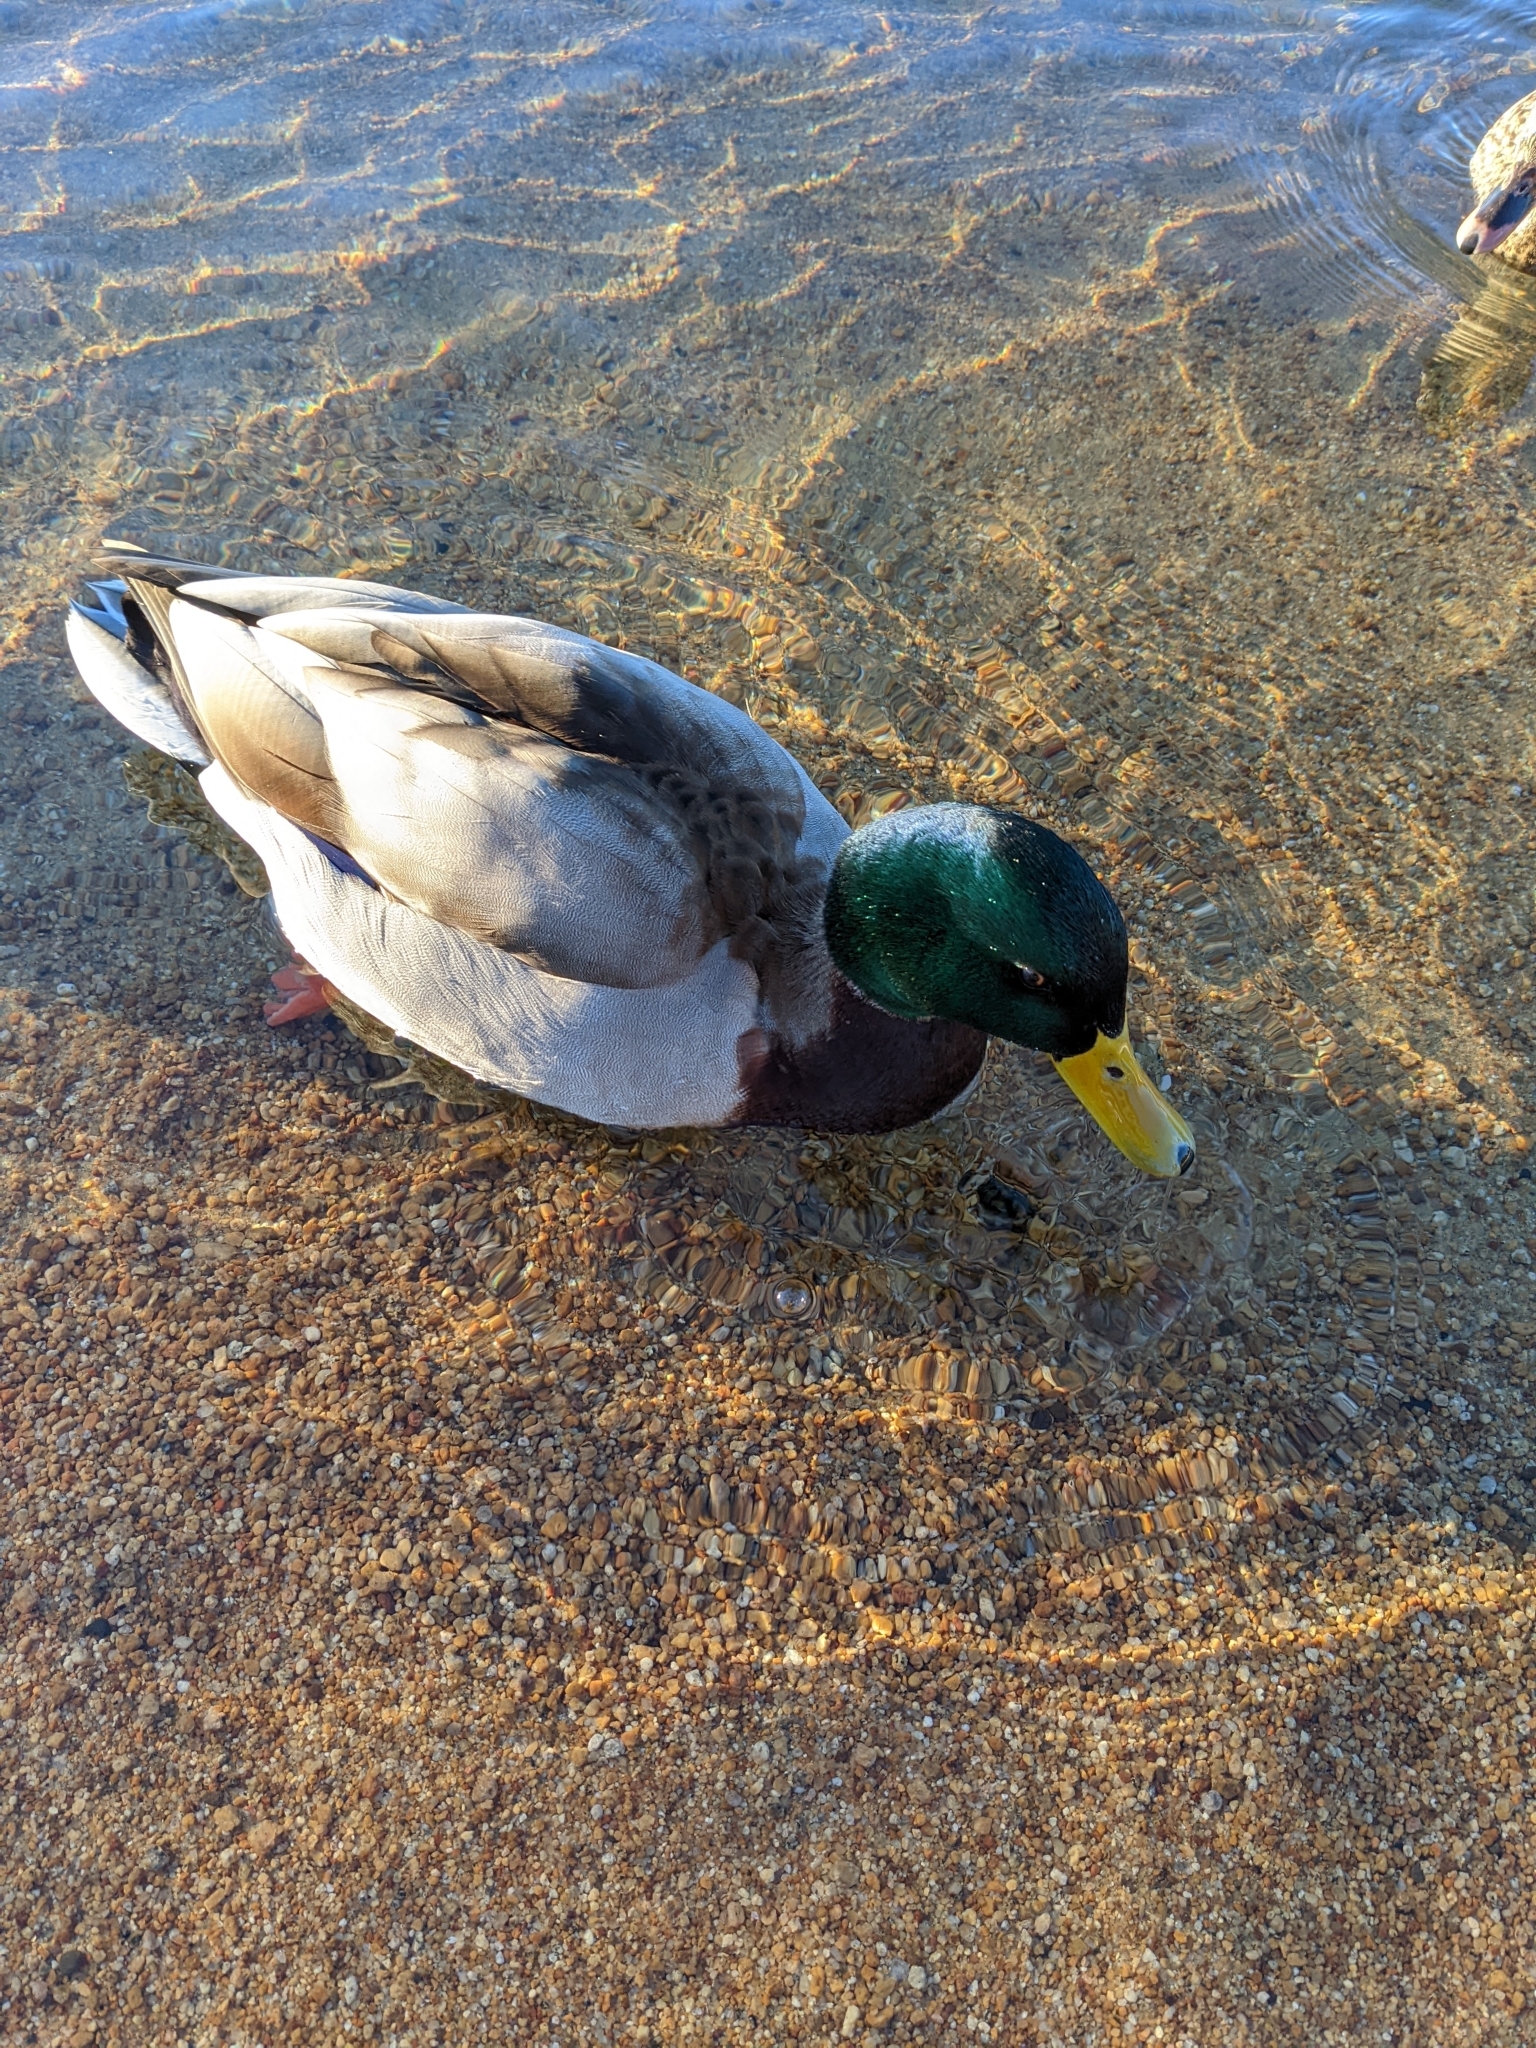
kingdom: Animalia
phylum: Chordata
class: Aves
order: Anseriformes
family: Anatidae
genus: Anas
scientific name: Anas platyrhynchos
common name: Mallard
